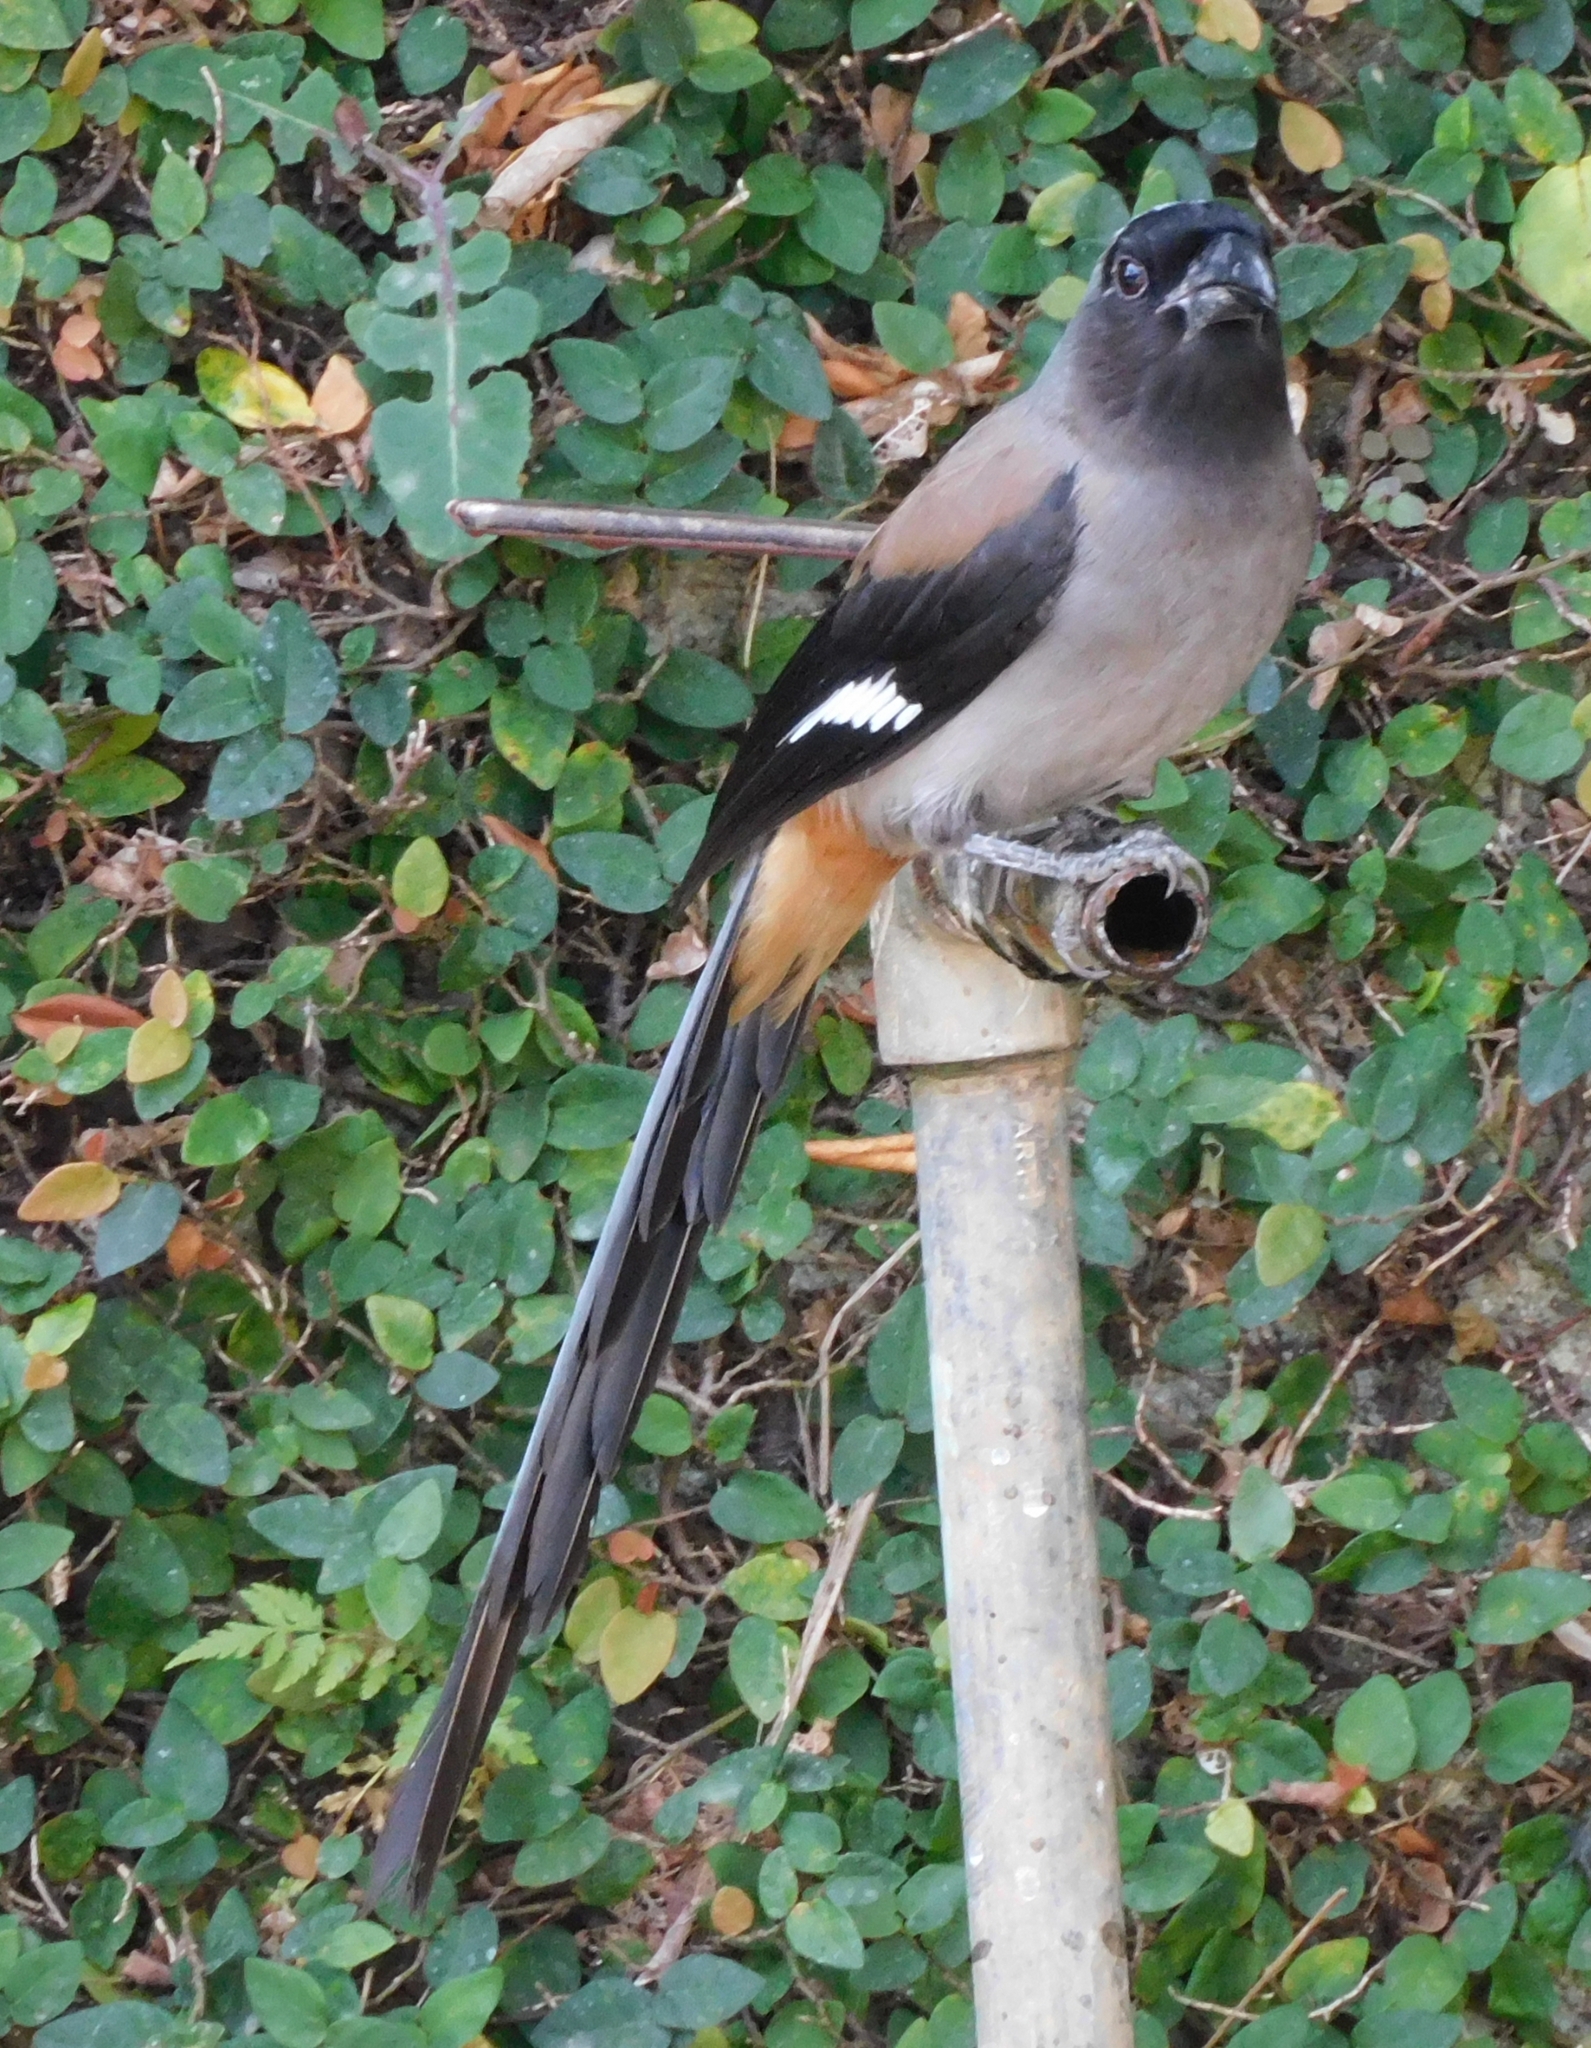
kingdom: Animalia
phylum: Chordata
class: Aves
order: Passeriformes
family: Corvidae
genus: Dendrocitta
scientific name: Dendrocitta formosae
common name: Grey treepie
